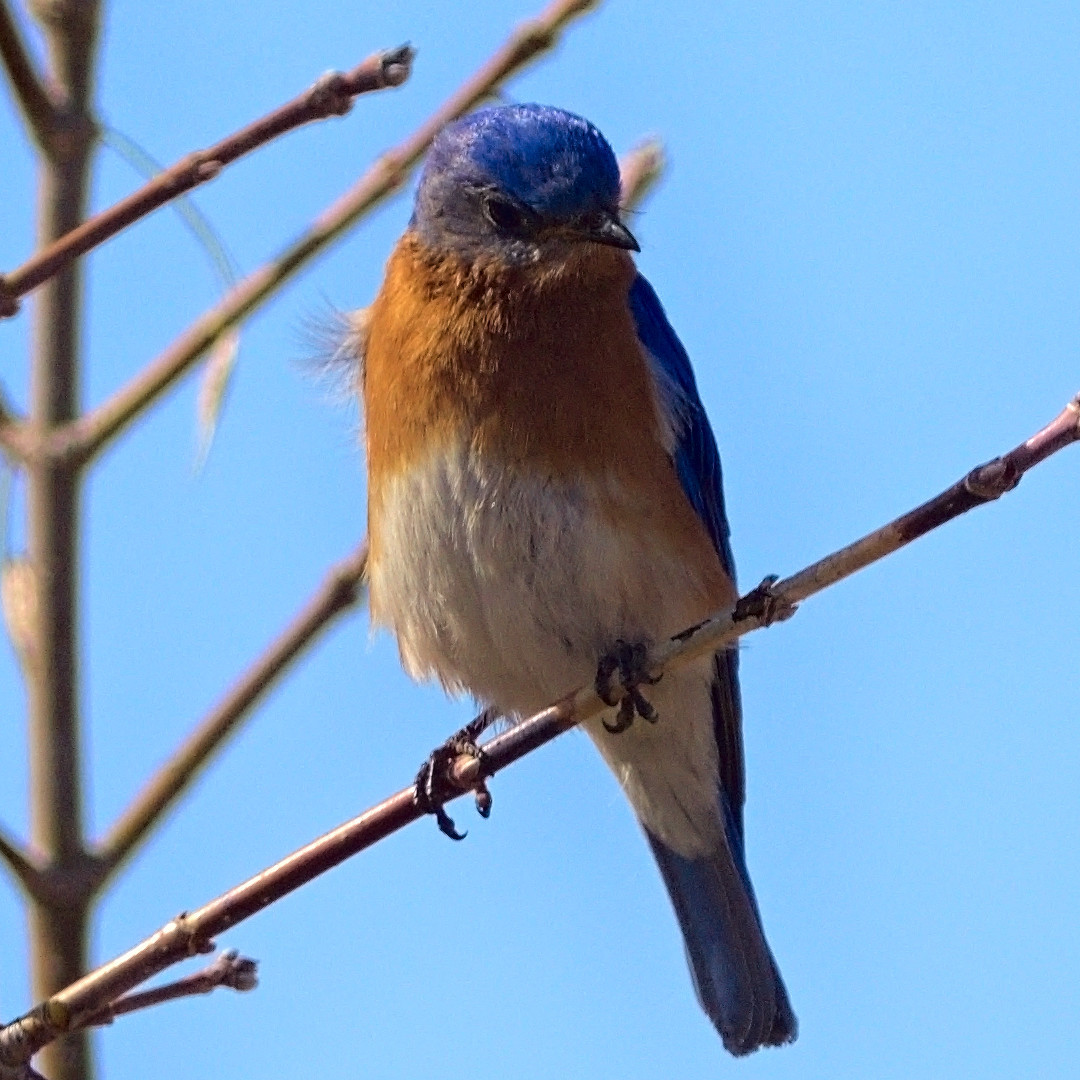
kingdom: Animalia
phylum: Chordata
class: Aves
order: Passeriformes
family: Turdidae
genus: Sialia
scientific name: Sialia sialis
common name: Eastern bluebird
